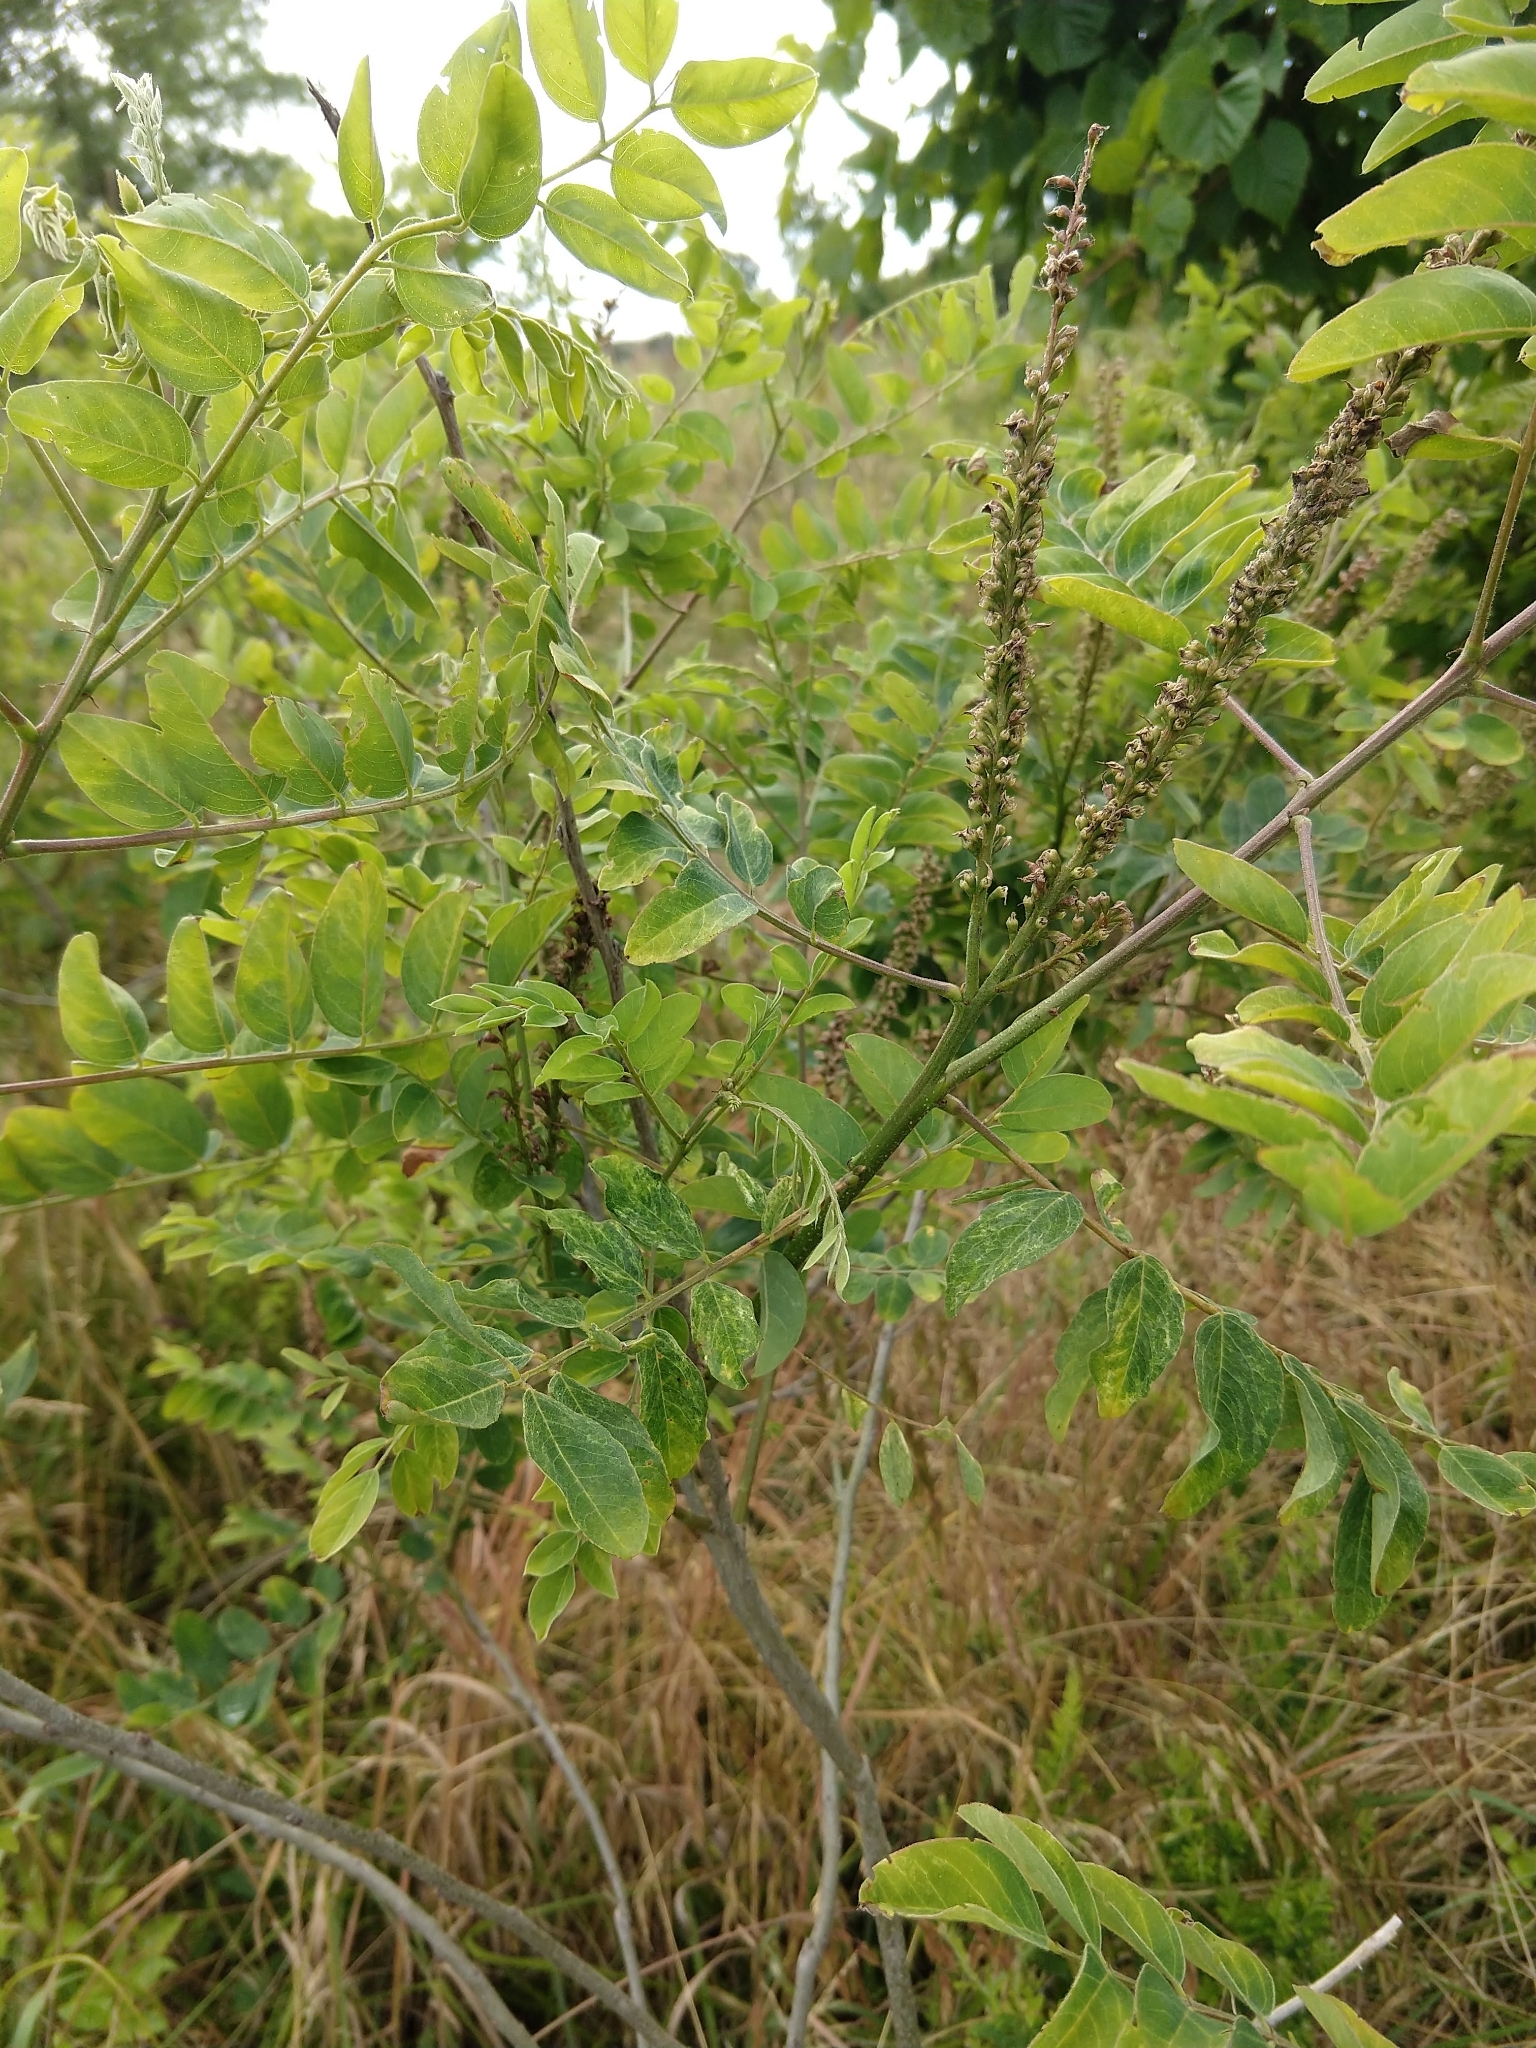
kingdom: Plantae
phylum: Tracheophyta
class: Magnoliopsida
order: Fabales
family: Fabaceae
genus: Amorpha
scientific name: Amorpha fruticosa
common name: False indigo
